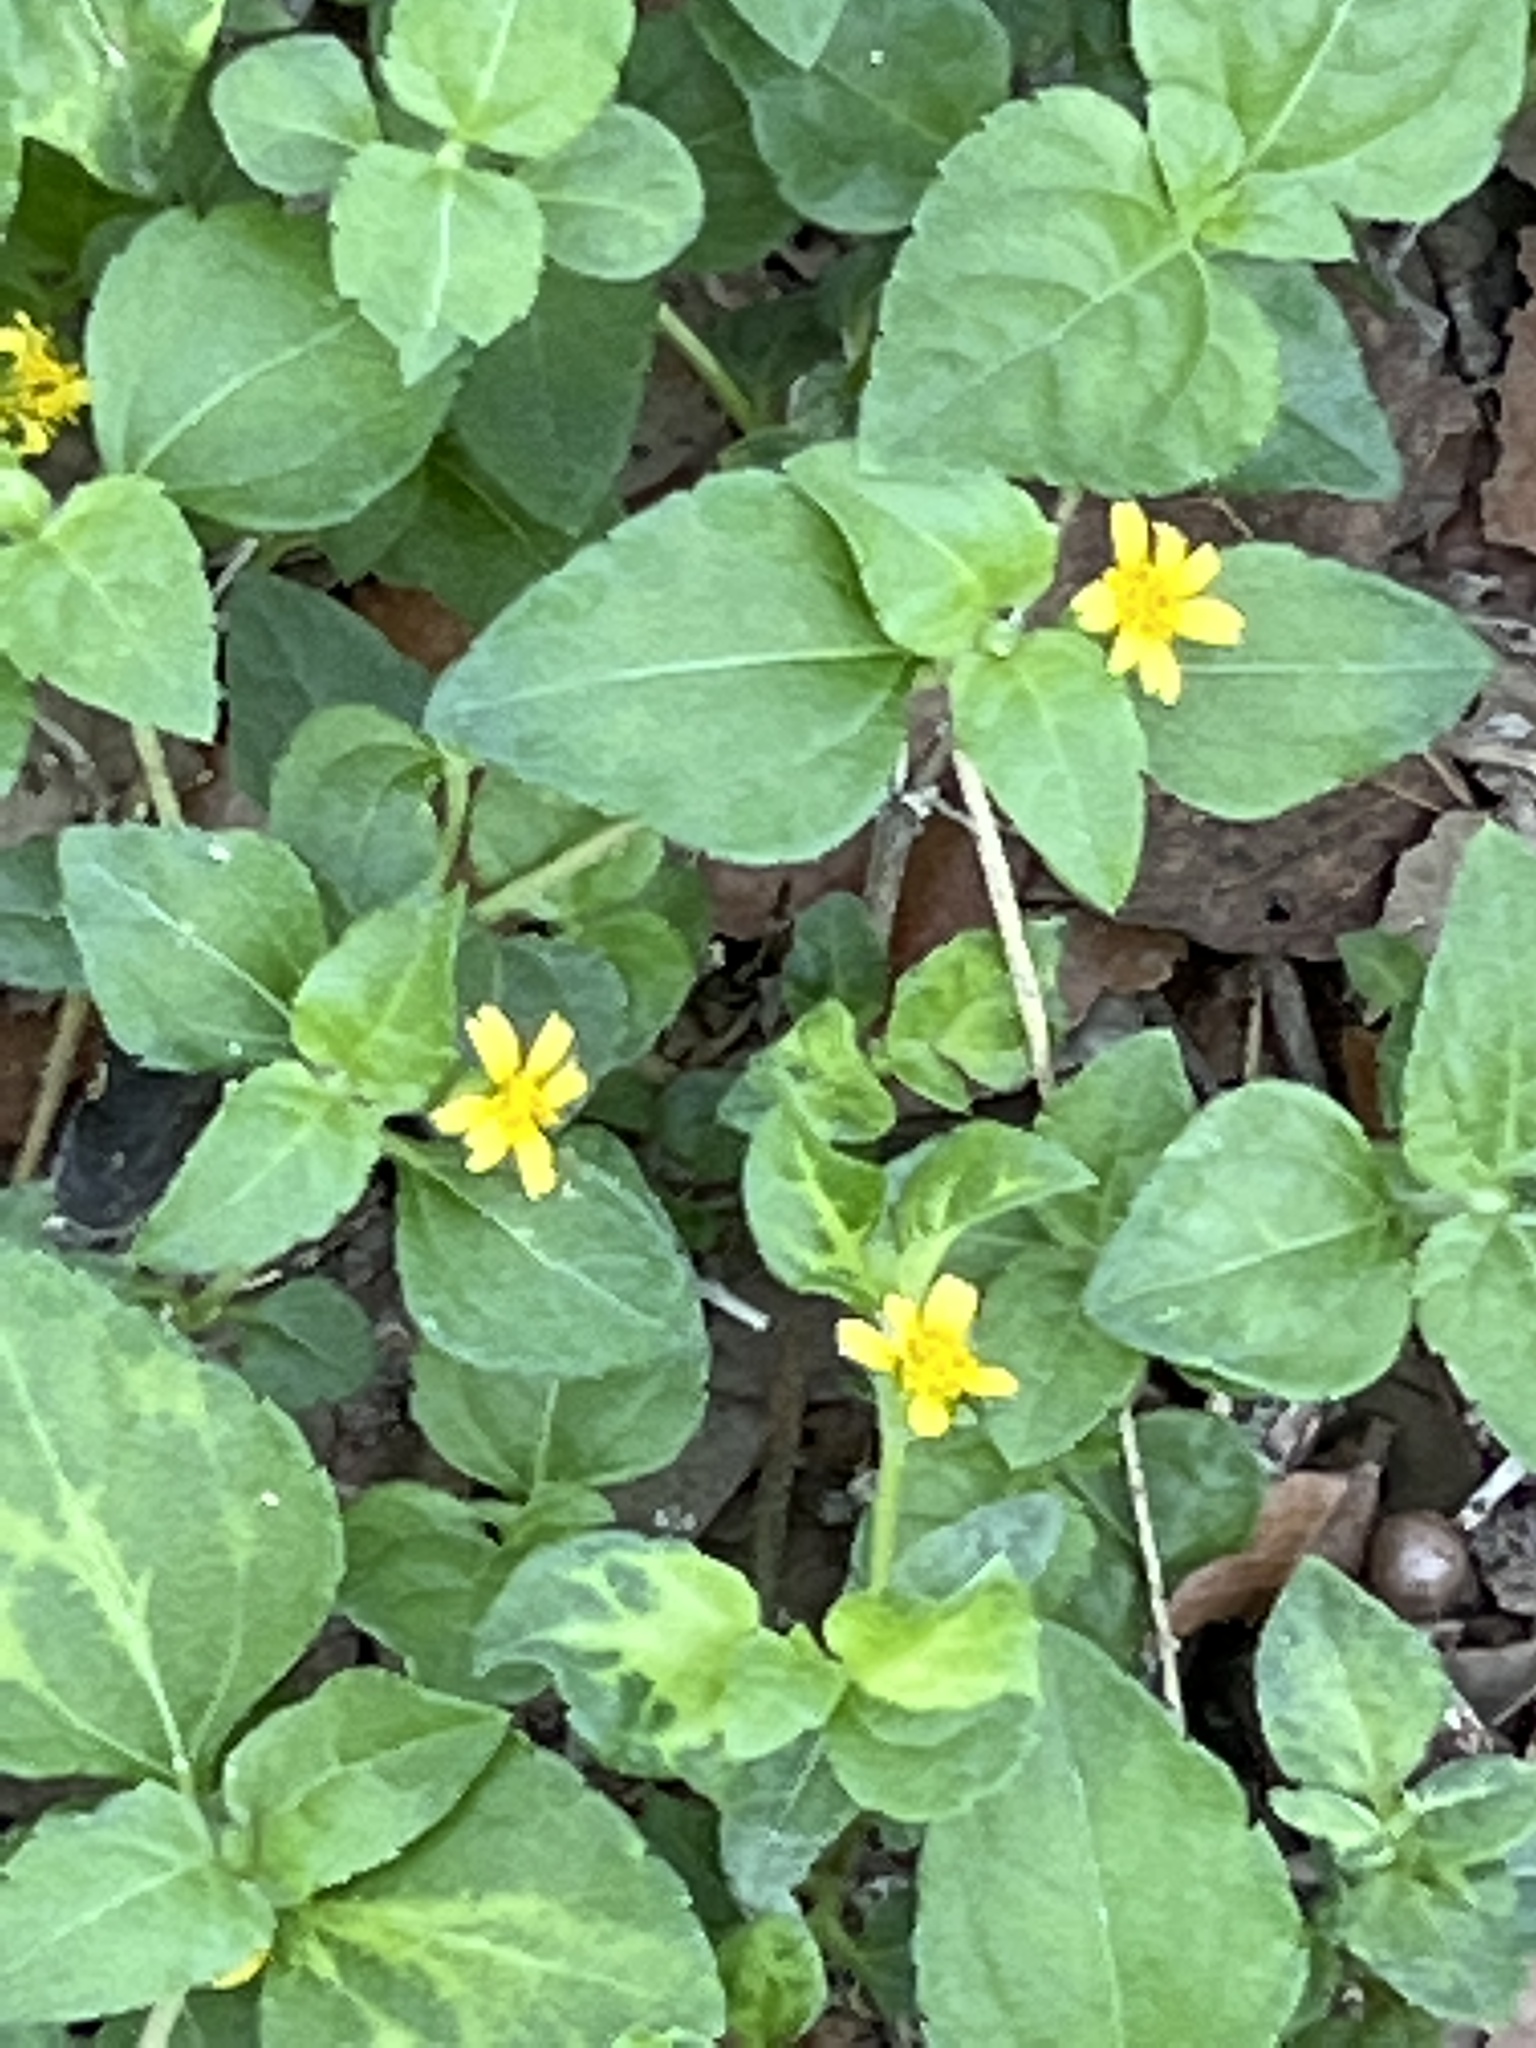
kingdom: Plantae
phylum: Tracheophyta
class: Magnoliopsida
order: Asterales
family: Asteraceae
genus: Calyptocarpus
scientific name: Calyptocarpus vialis
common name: Straggler daisy
